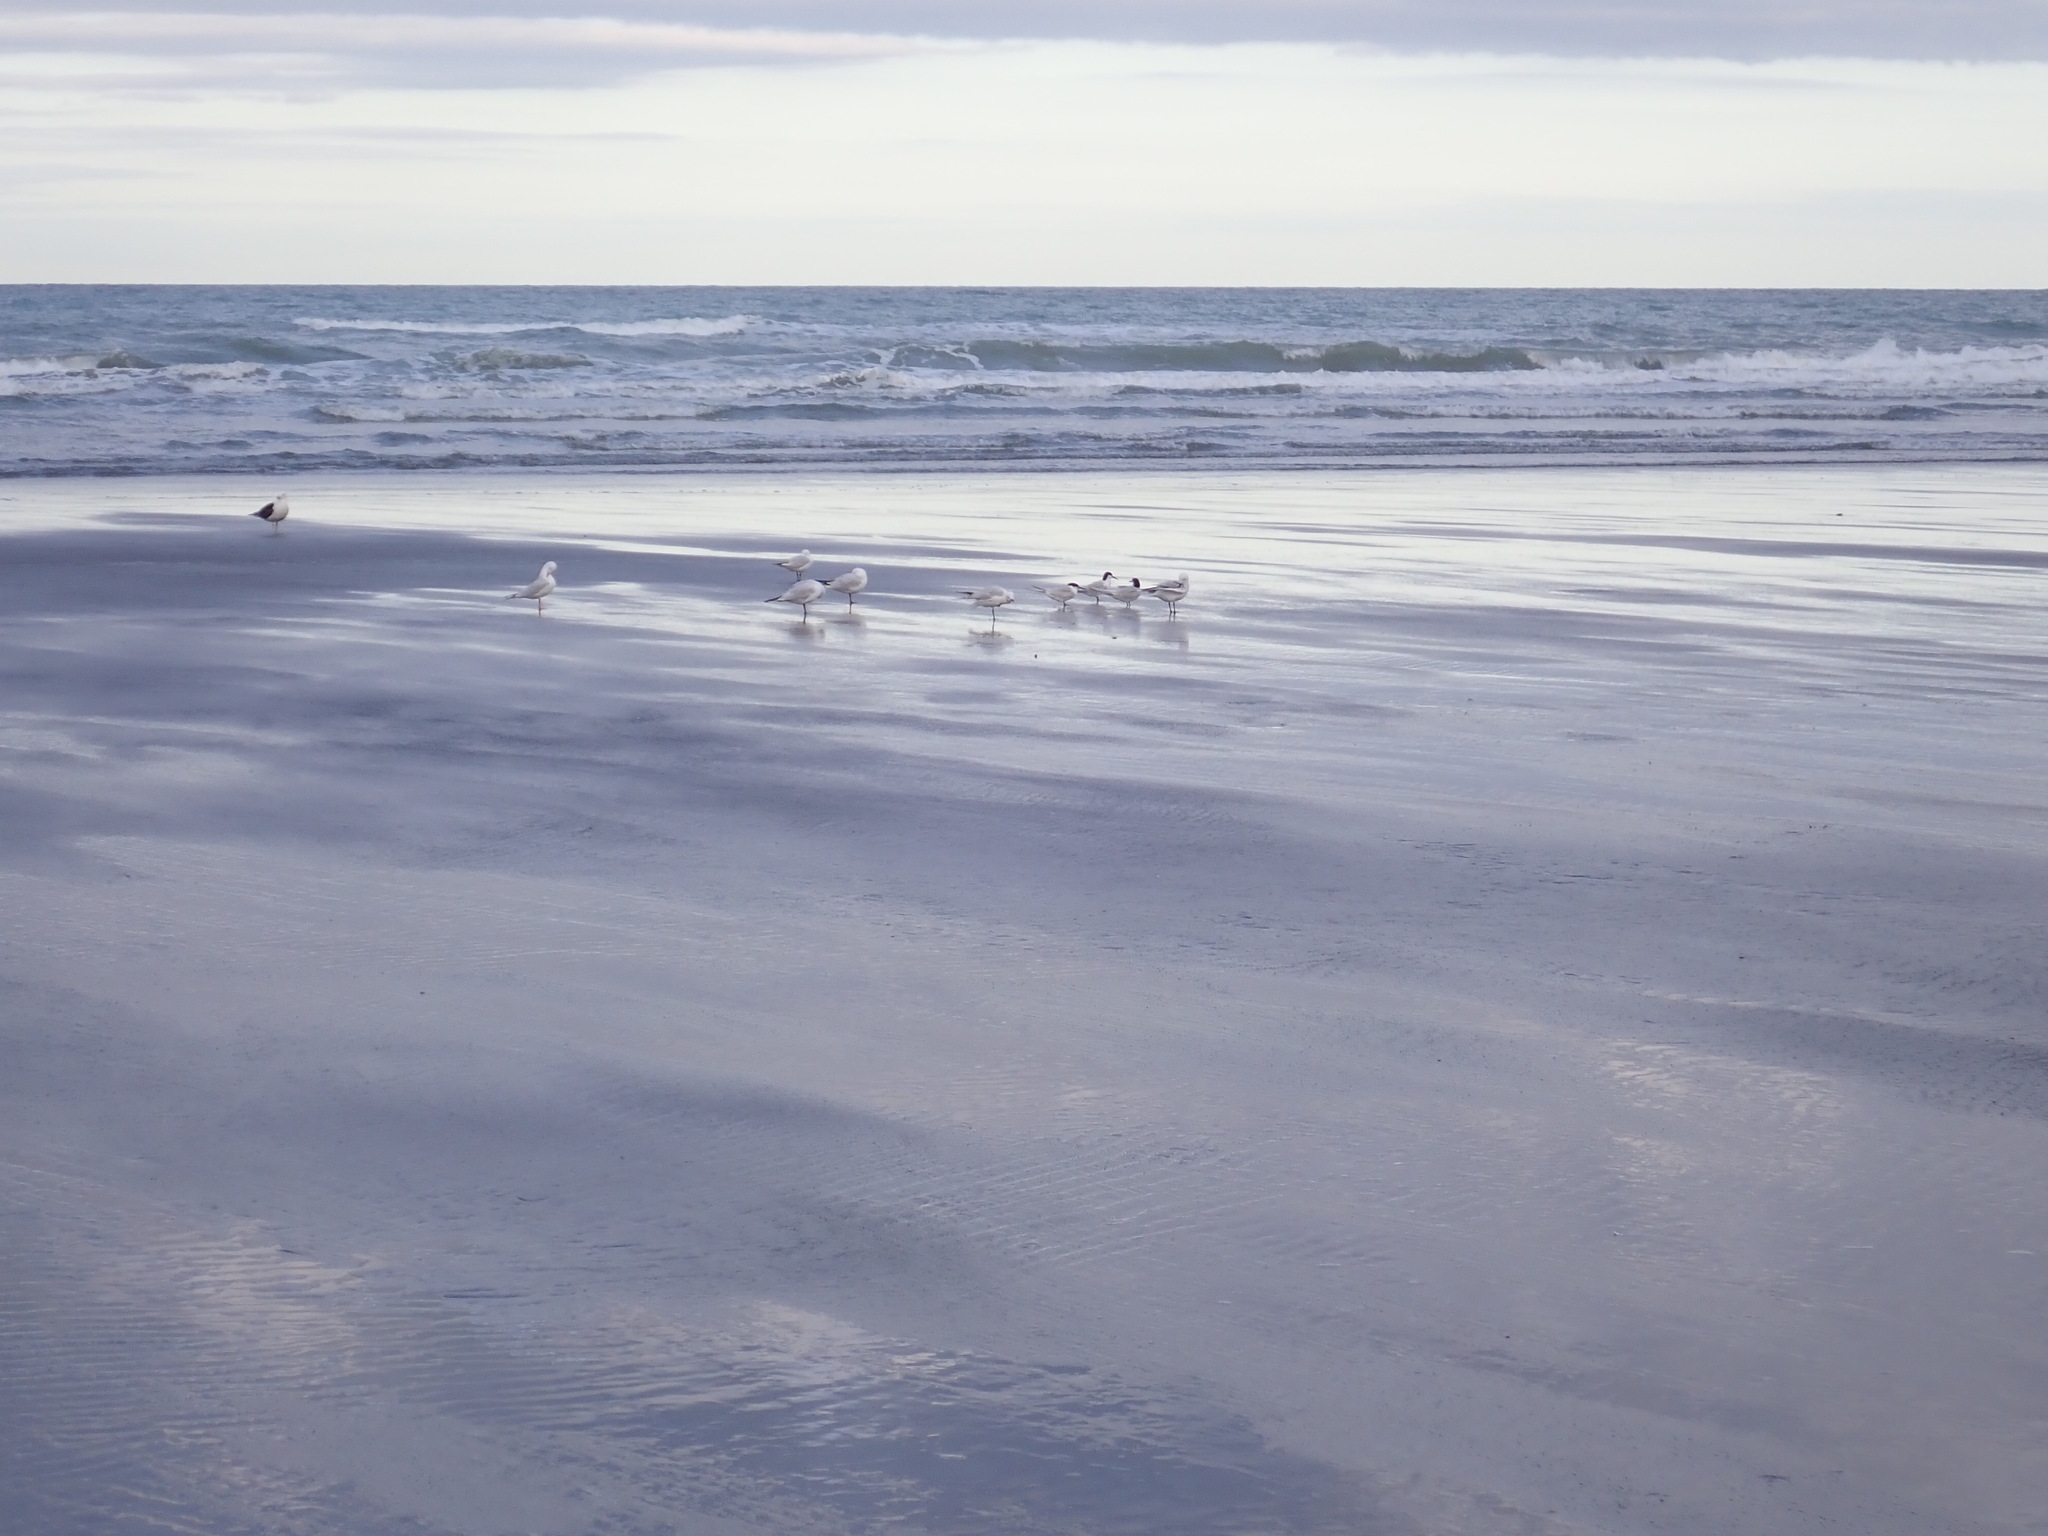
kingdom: Animalia
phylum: Chordata
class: Aves
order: Charadriiformes
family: Laridae
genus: Sterna
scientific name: Sterna striata
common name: White-fronted tern
